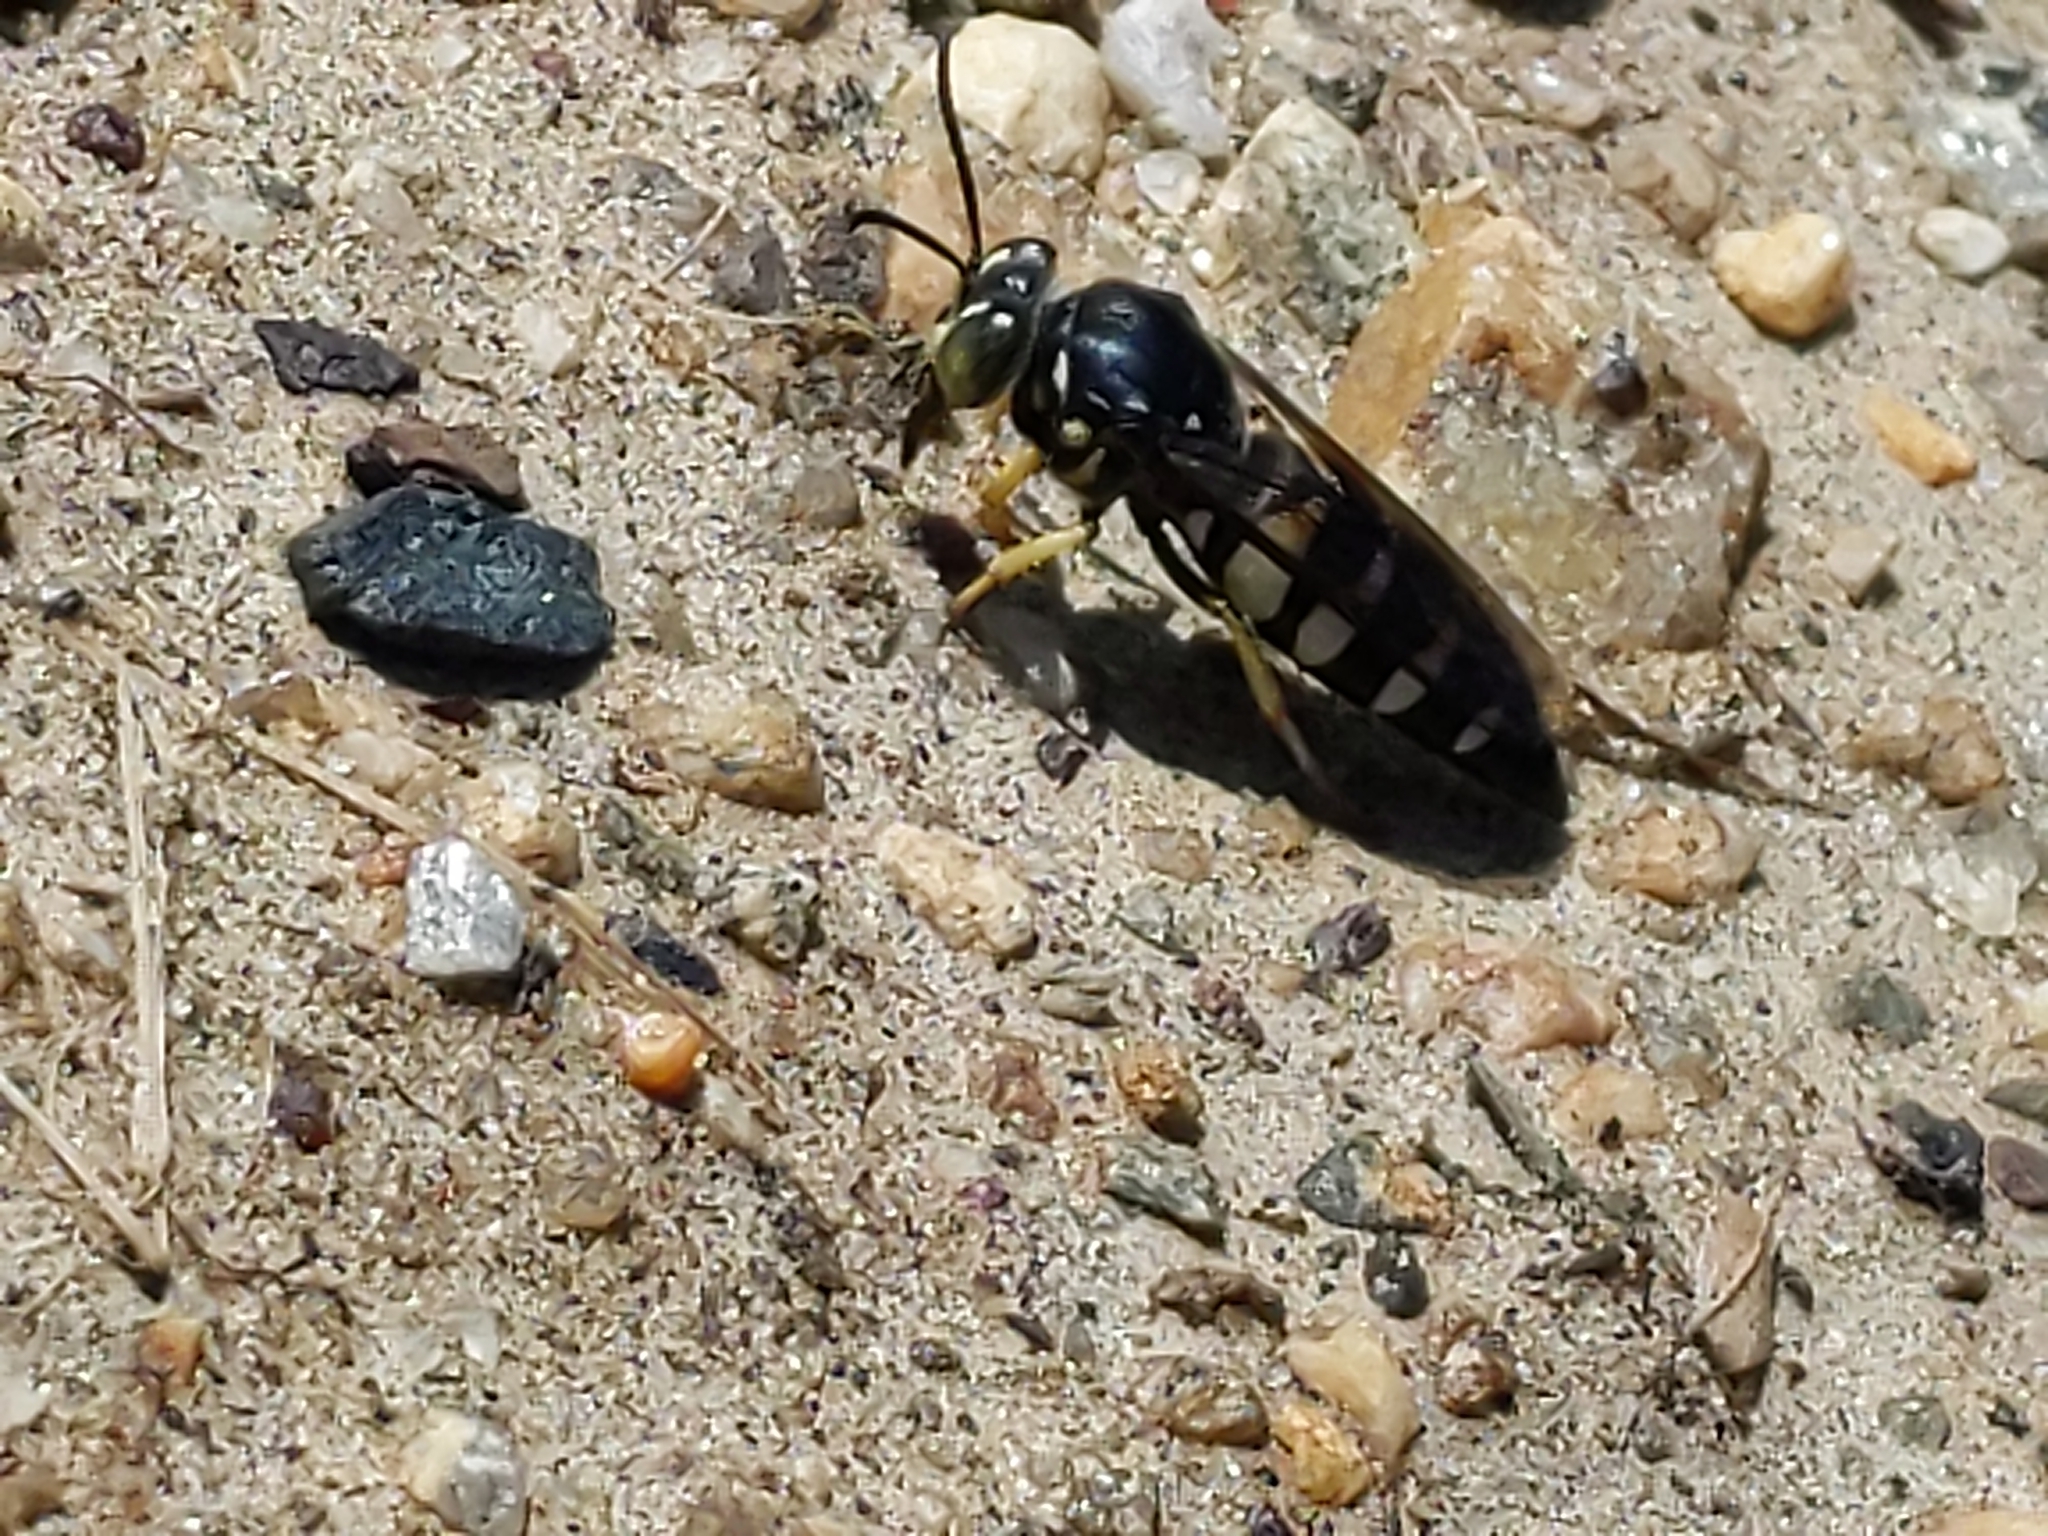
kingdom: Animalia
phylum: Arthropoda
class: Insecta
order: Hymenoptera
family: Crabronidae
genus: Bicyrtes
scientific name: Bicyrtes quadrifasciatus
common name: Four-banded stink bug hunter wasp
